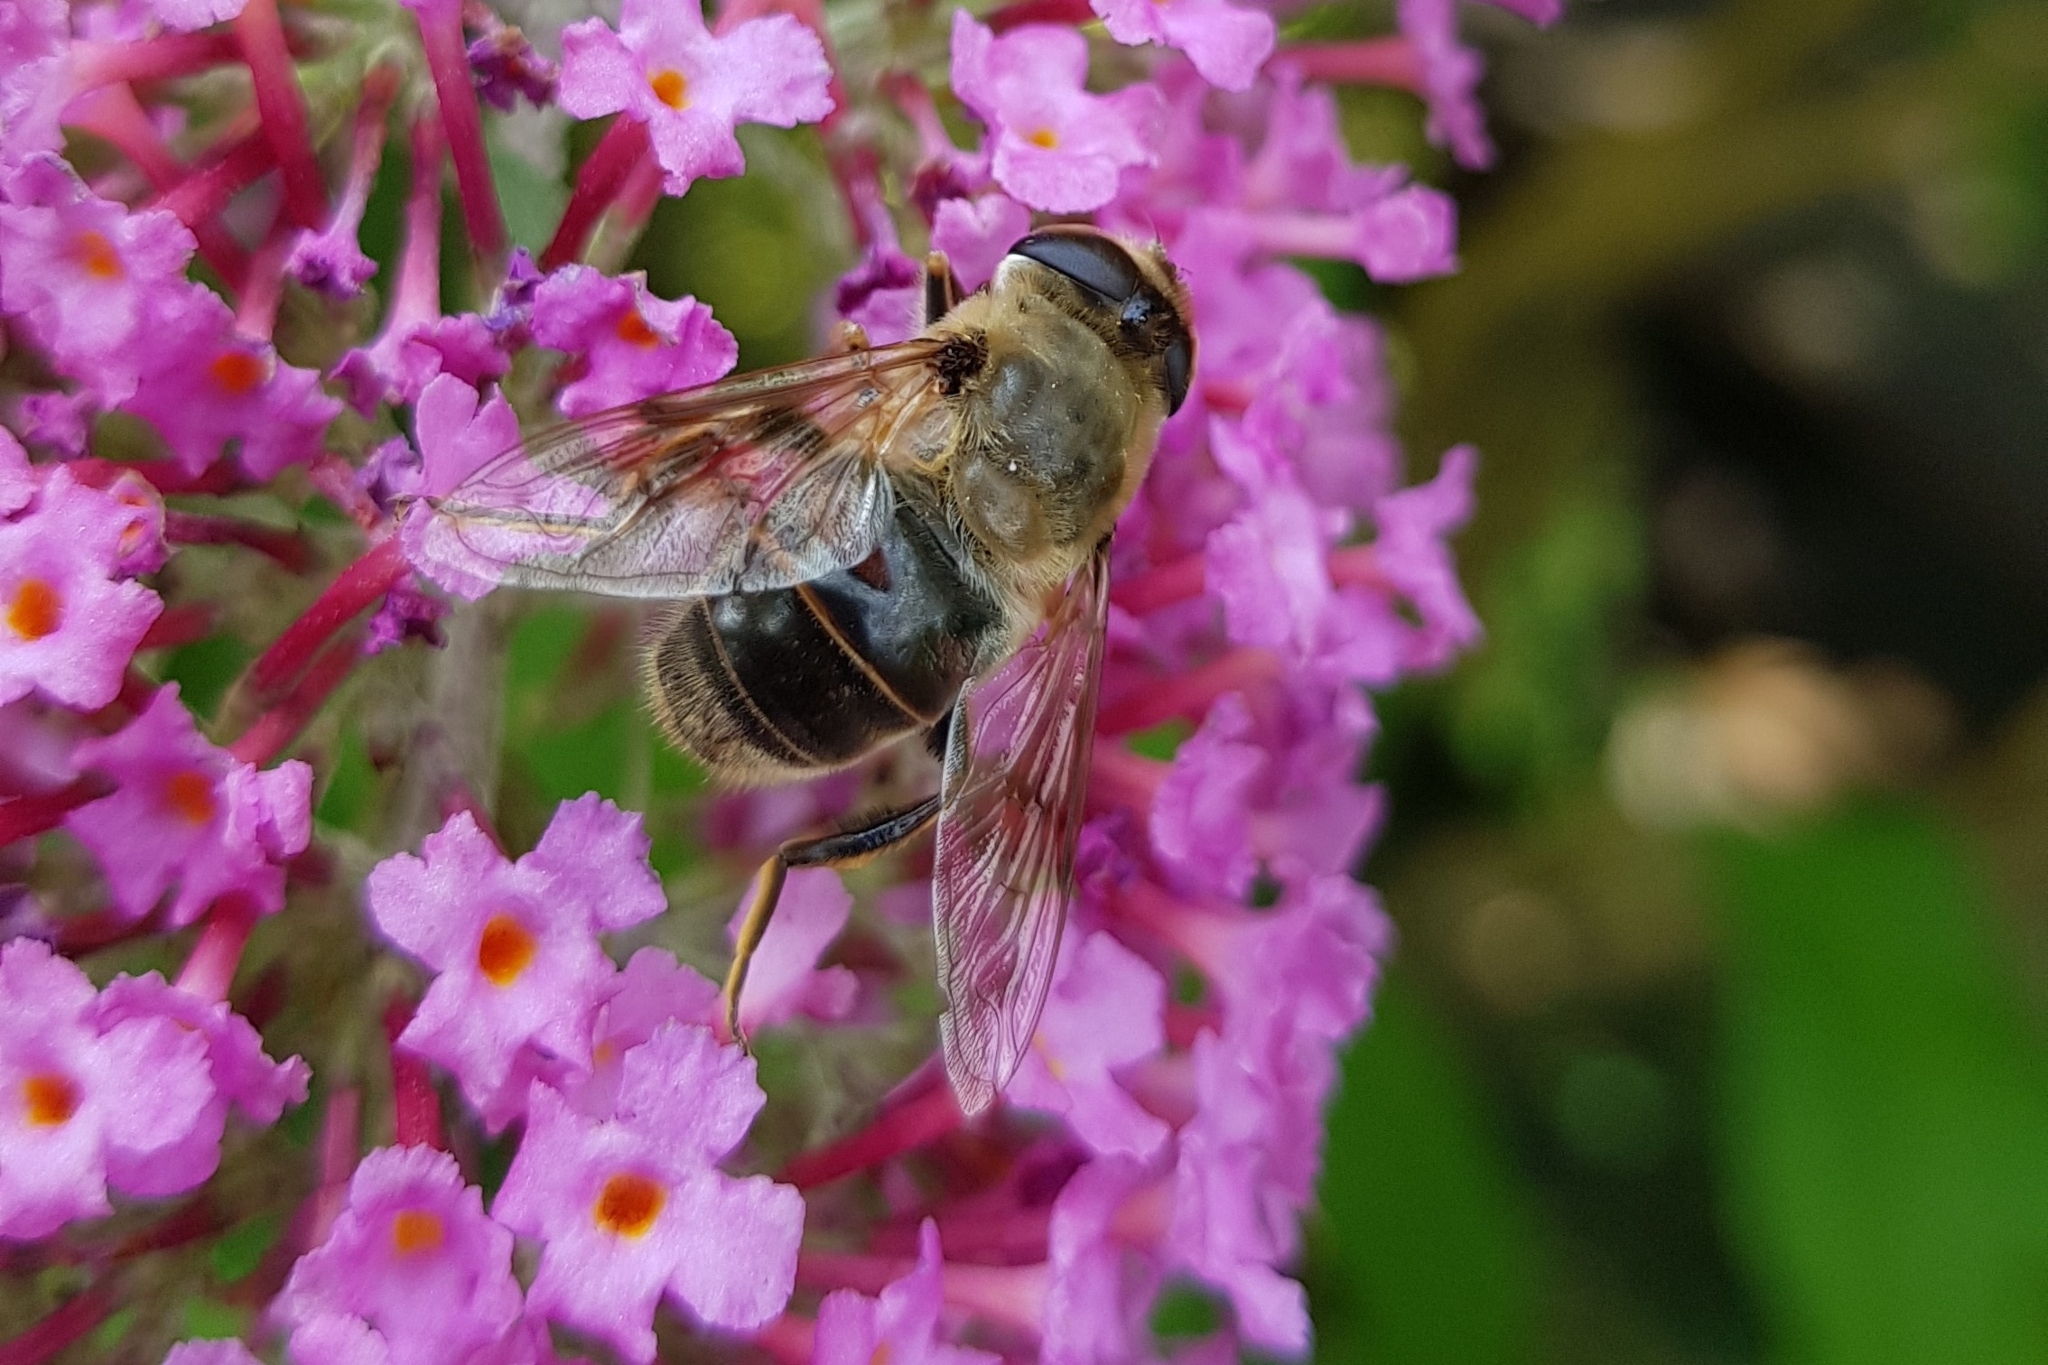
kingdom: Animalia
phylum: Arthropoda
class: Insecta
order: Diptera
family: Syrphidae
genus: Eristalis
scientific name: Eristalis tenax
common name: Drone fly
